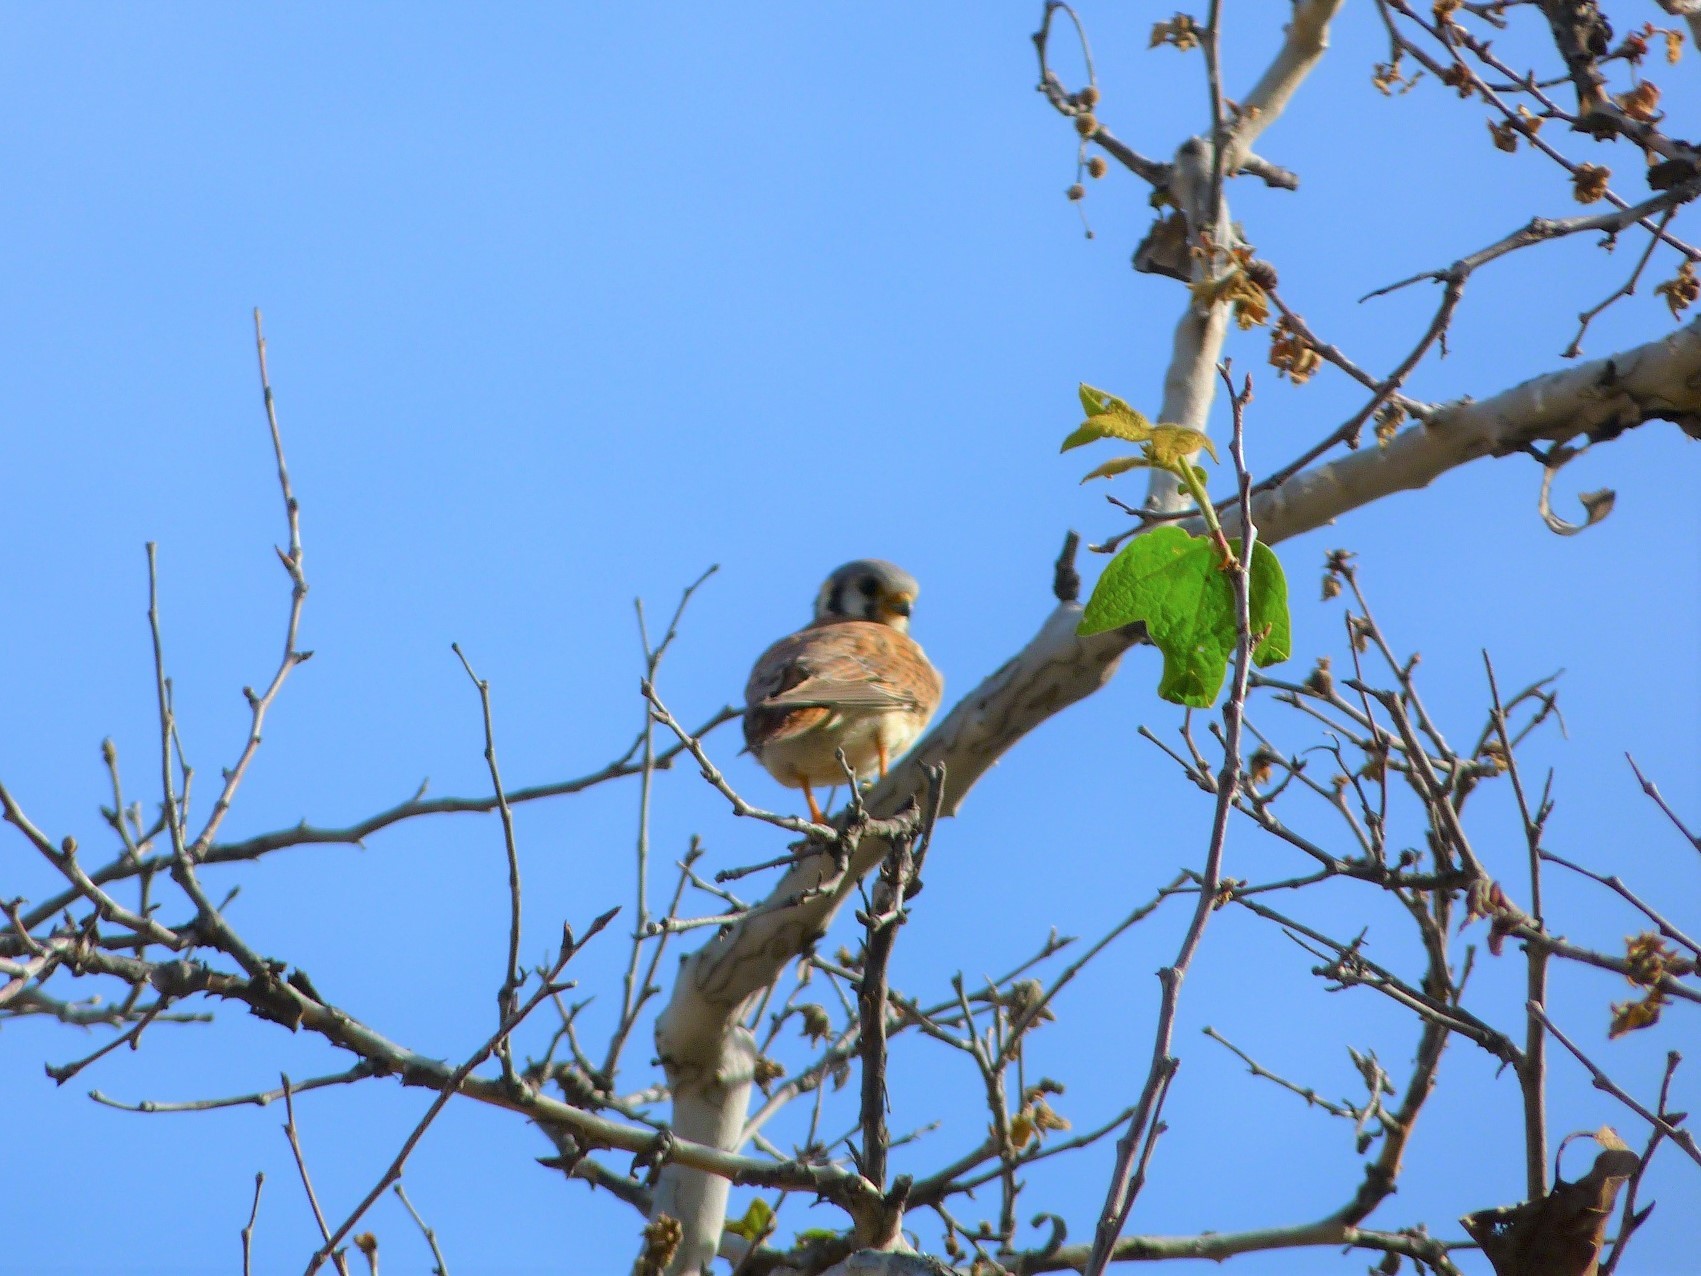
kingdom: Animalia
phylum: Chordata
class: Aves
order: Falconiformes
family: Falconidae
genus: Falco
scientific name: Falco sparverius
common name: American kestrel
